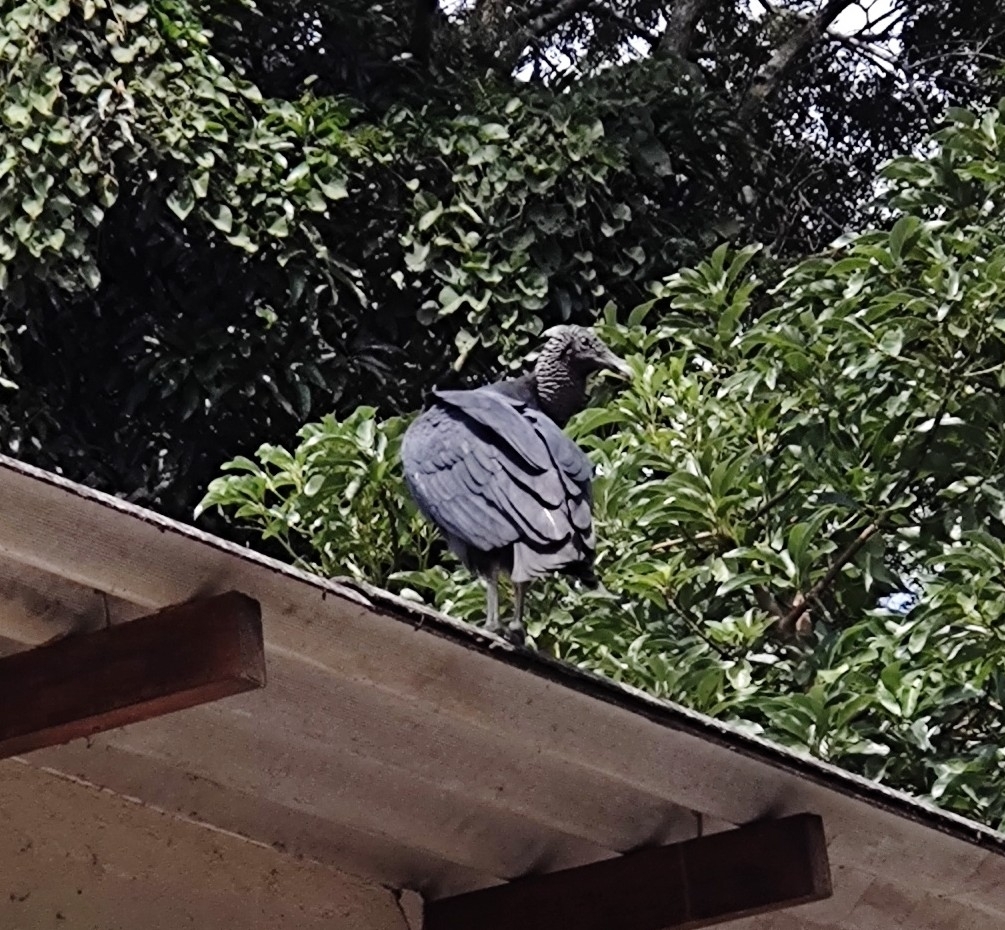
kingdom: Animalia
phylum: Chordata
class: Aves
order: Accipitriformes
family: Cathartidae
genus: Coragyps
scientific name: Coragyps atratus
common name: Black vulture
